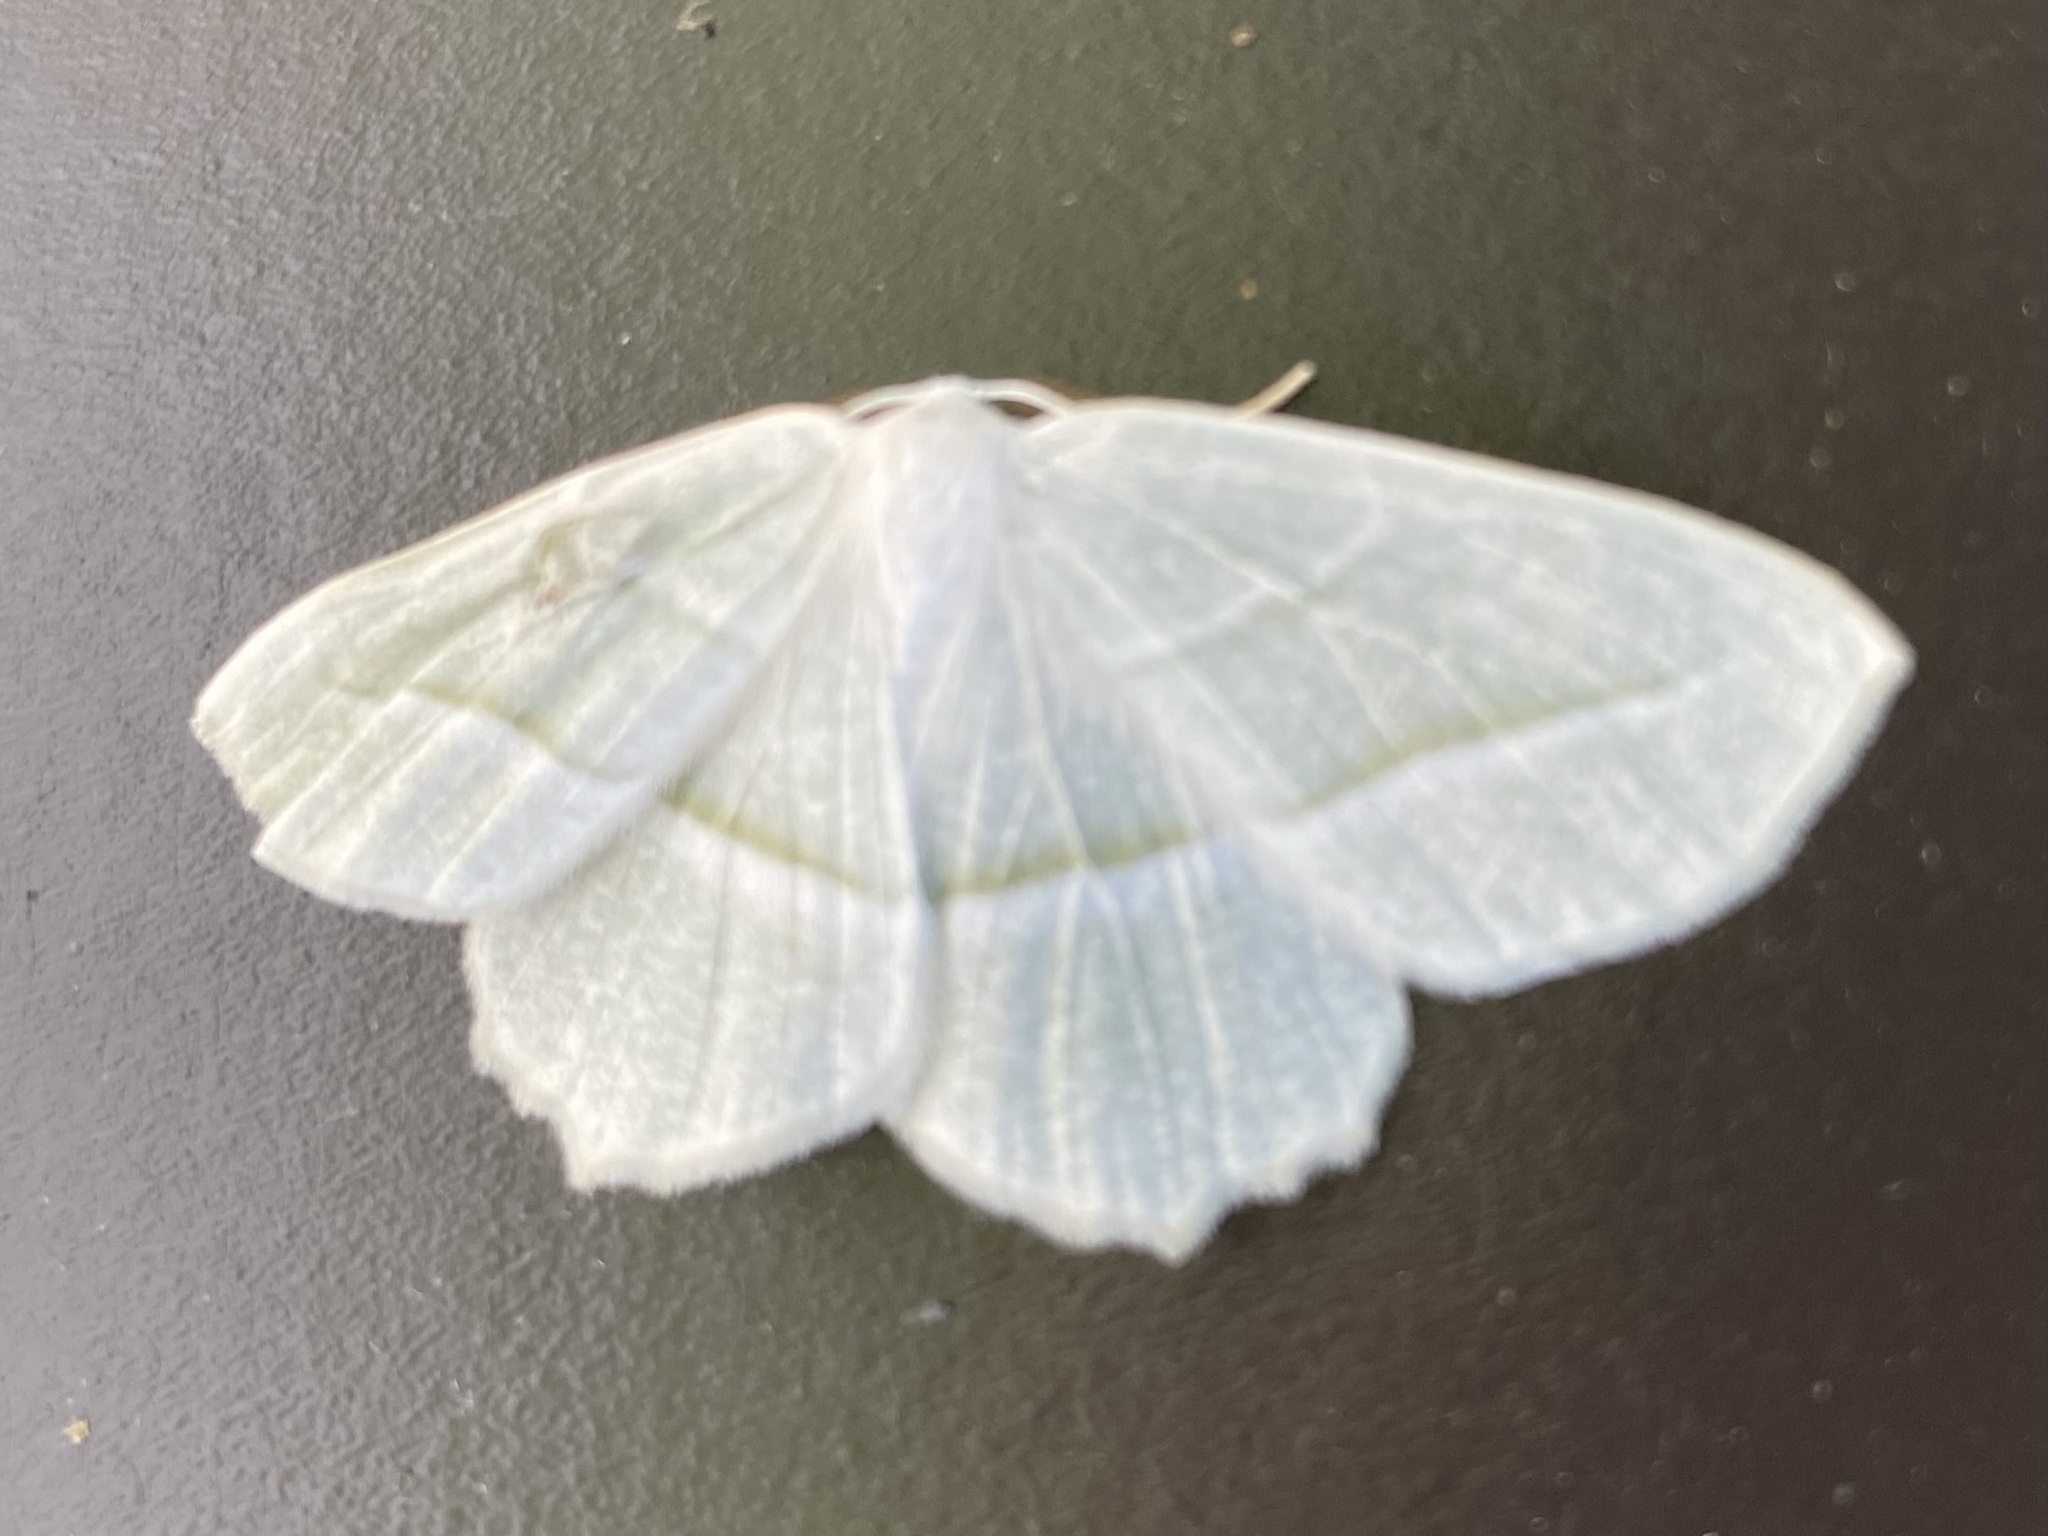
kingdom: Animalia
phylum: Arthropoda
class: Insecta
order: Lepidoptera
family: Geometridae
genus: Campaea
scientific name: Campaea perlata
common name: Fringed looper
